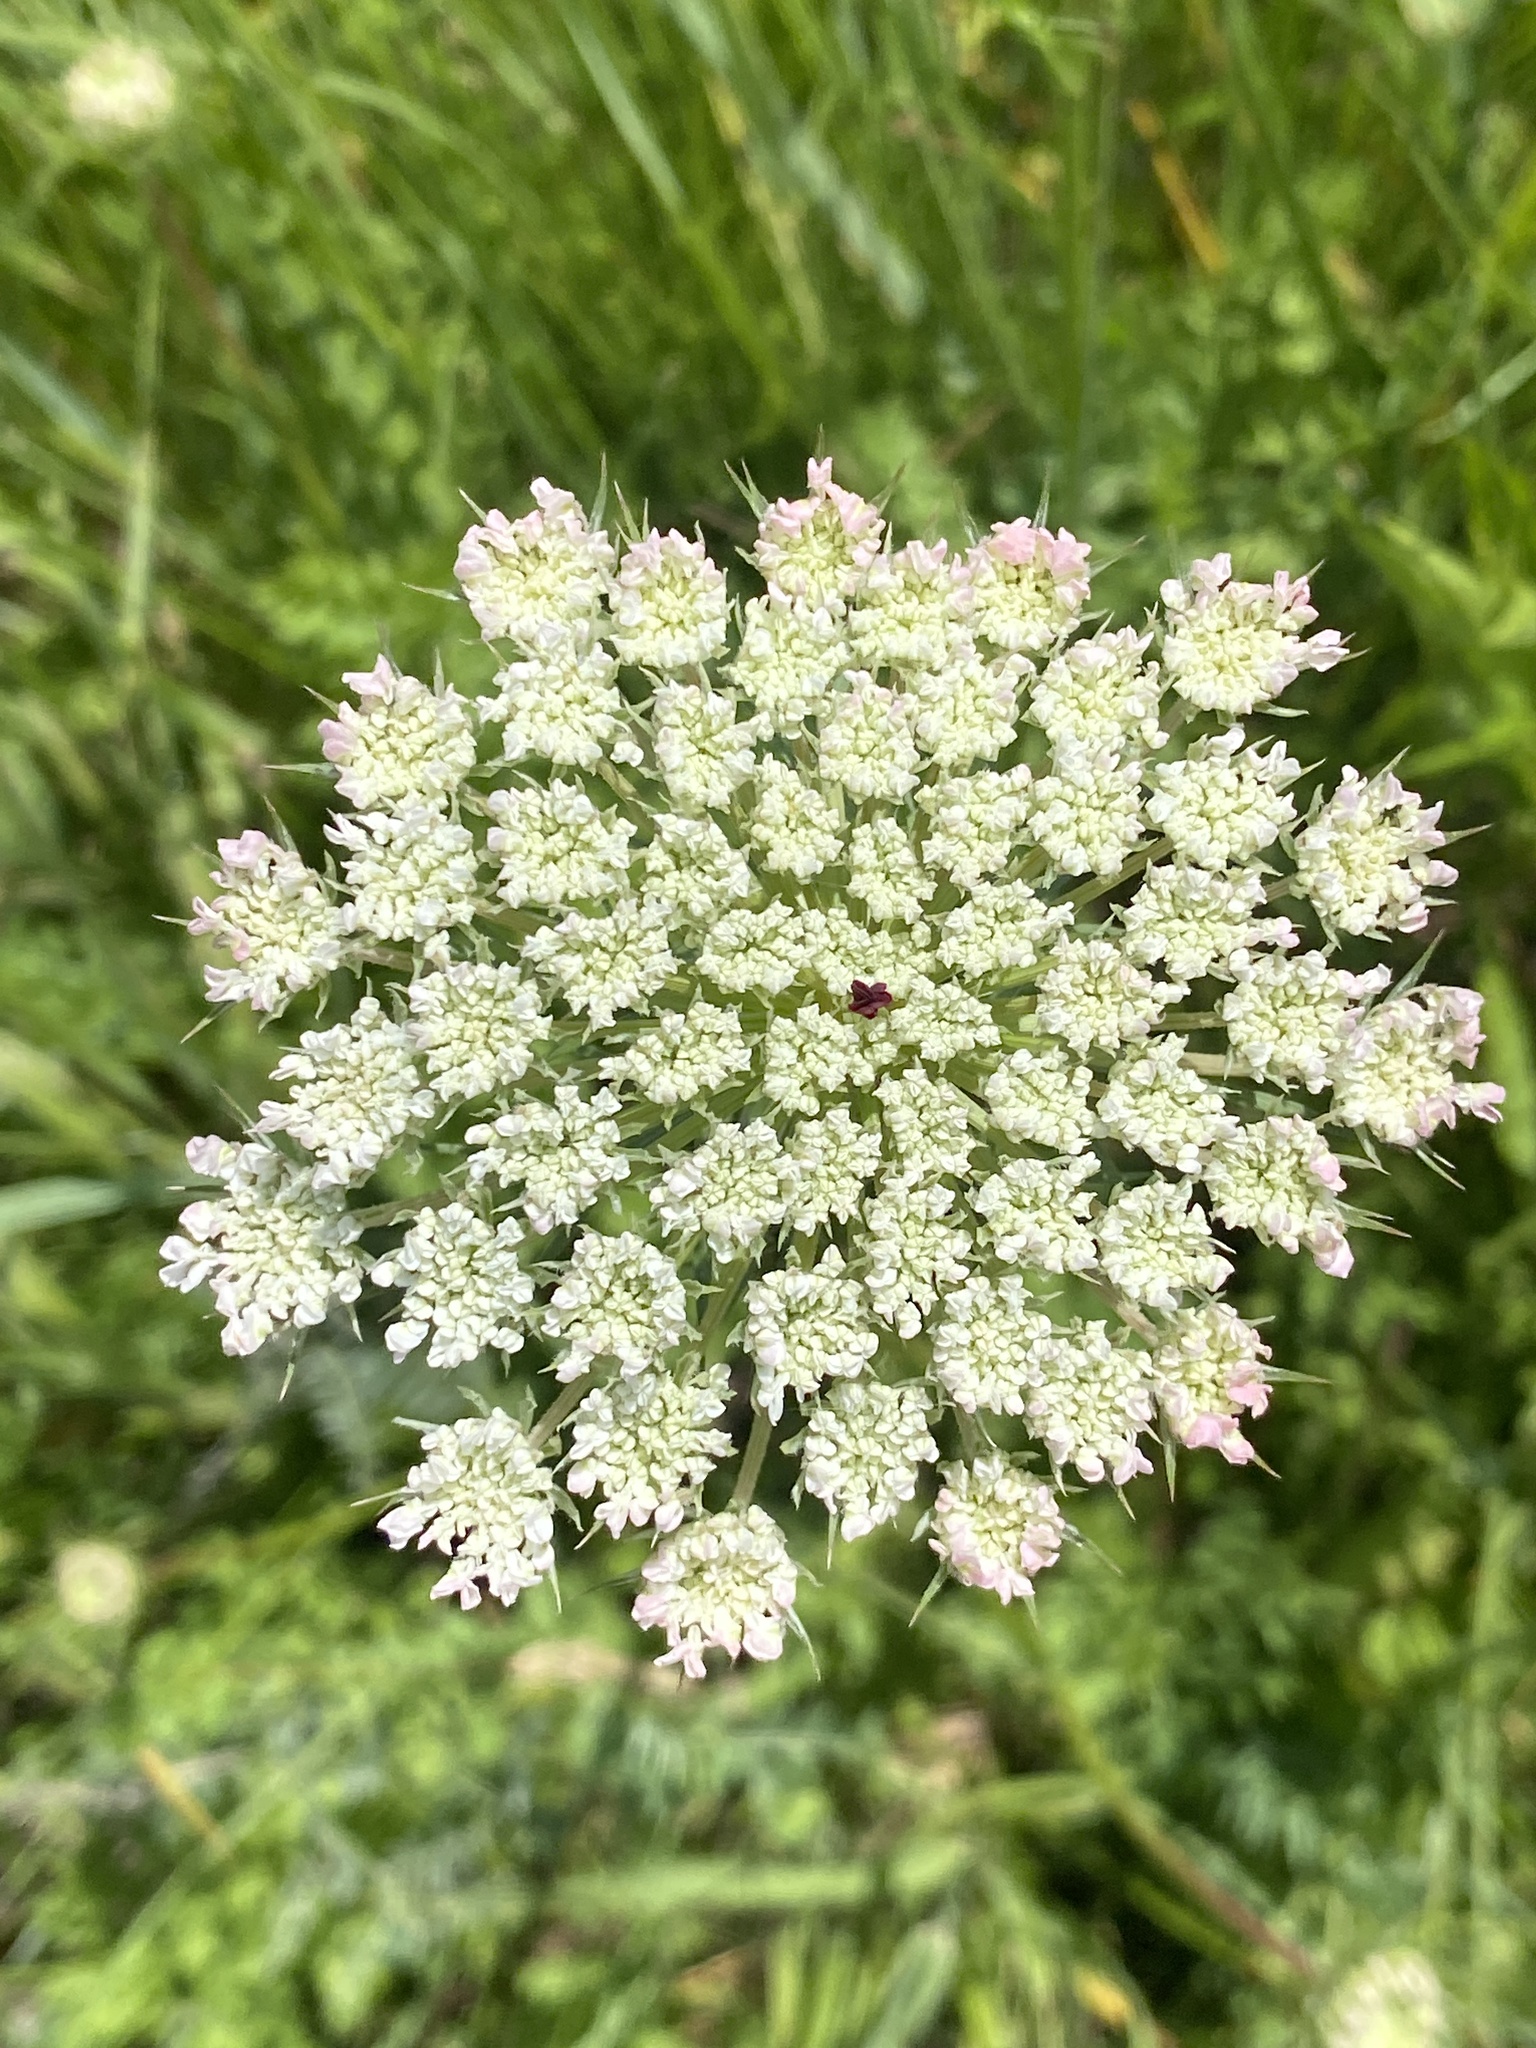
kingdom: Plantae
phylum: Tracheophyta
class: Magnoliopsida
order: Apiales
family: Apiaceae
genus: Daucus
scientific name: Daucus carota
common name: Wild carrot
